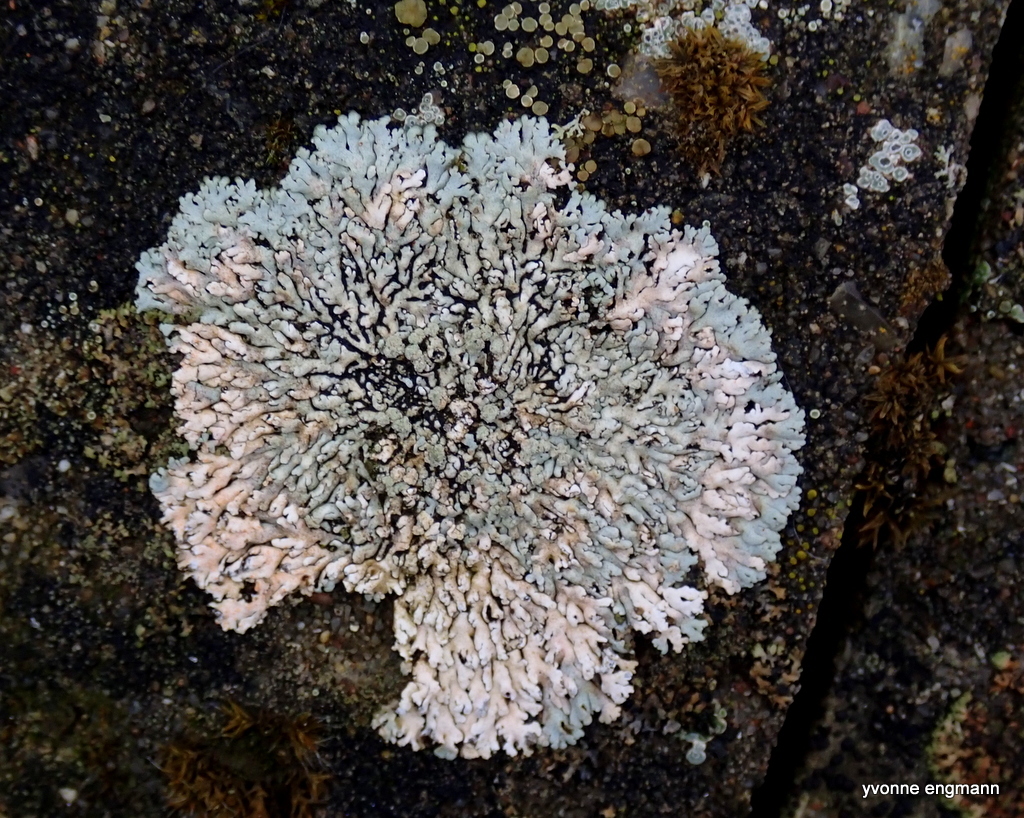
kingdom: Fungi
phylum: Ascomycota
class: Lecanoromycetes
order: Caliciales
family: Physciaceae
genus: Physcia
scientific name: Physcia caesia
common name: Blue-gray rosette lichen
